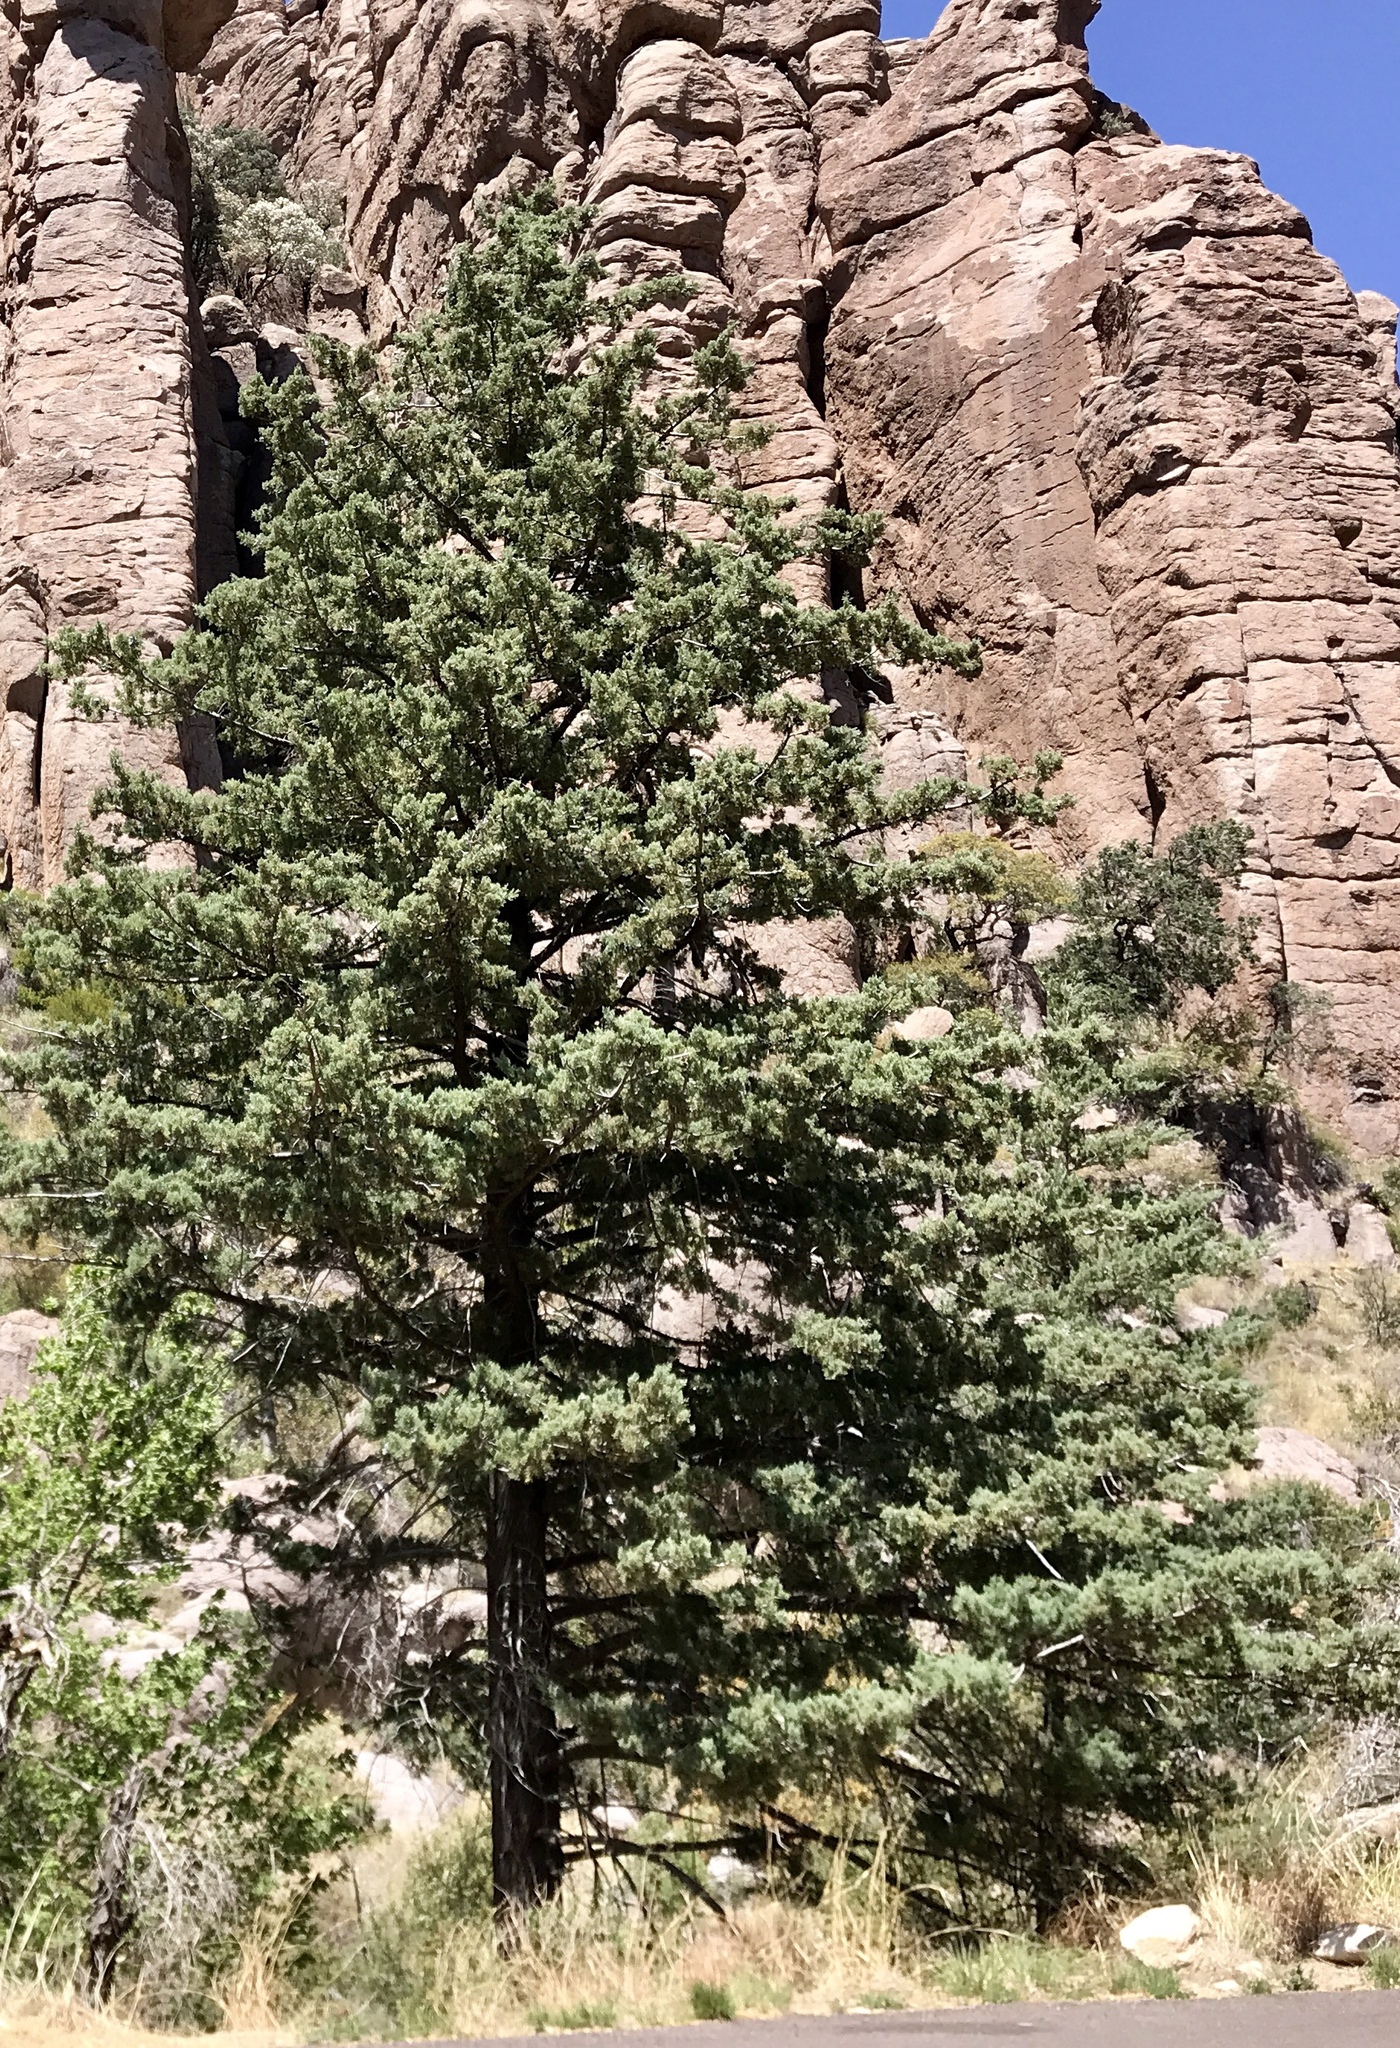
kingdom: Plantae
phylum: Tracheophyta
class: Pinopsida
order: Pinales
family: Cupressaceae
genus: Cupressus
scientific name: Cupressus arizonica
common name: Arizona cypress
